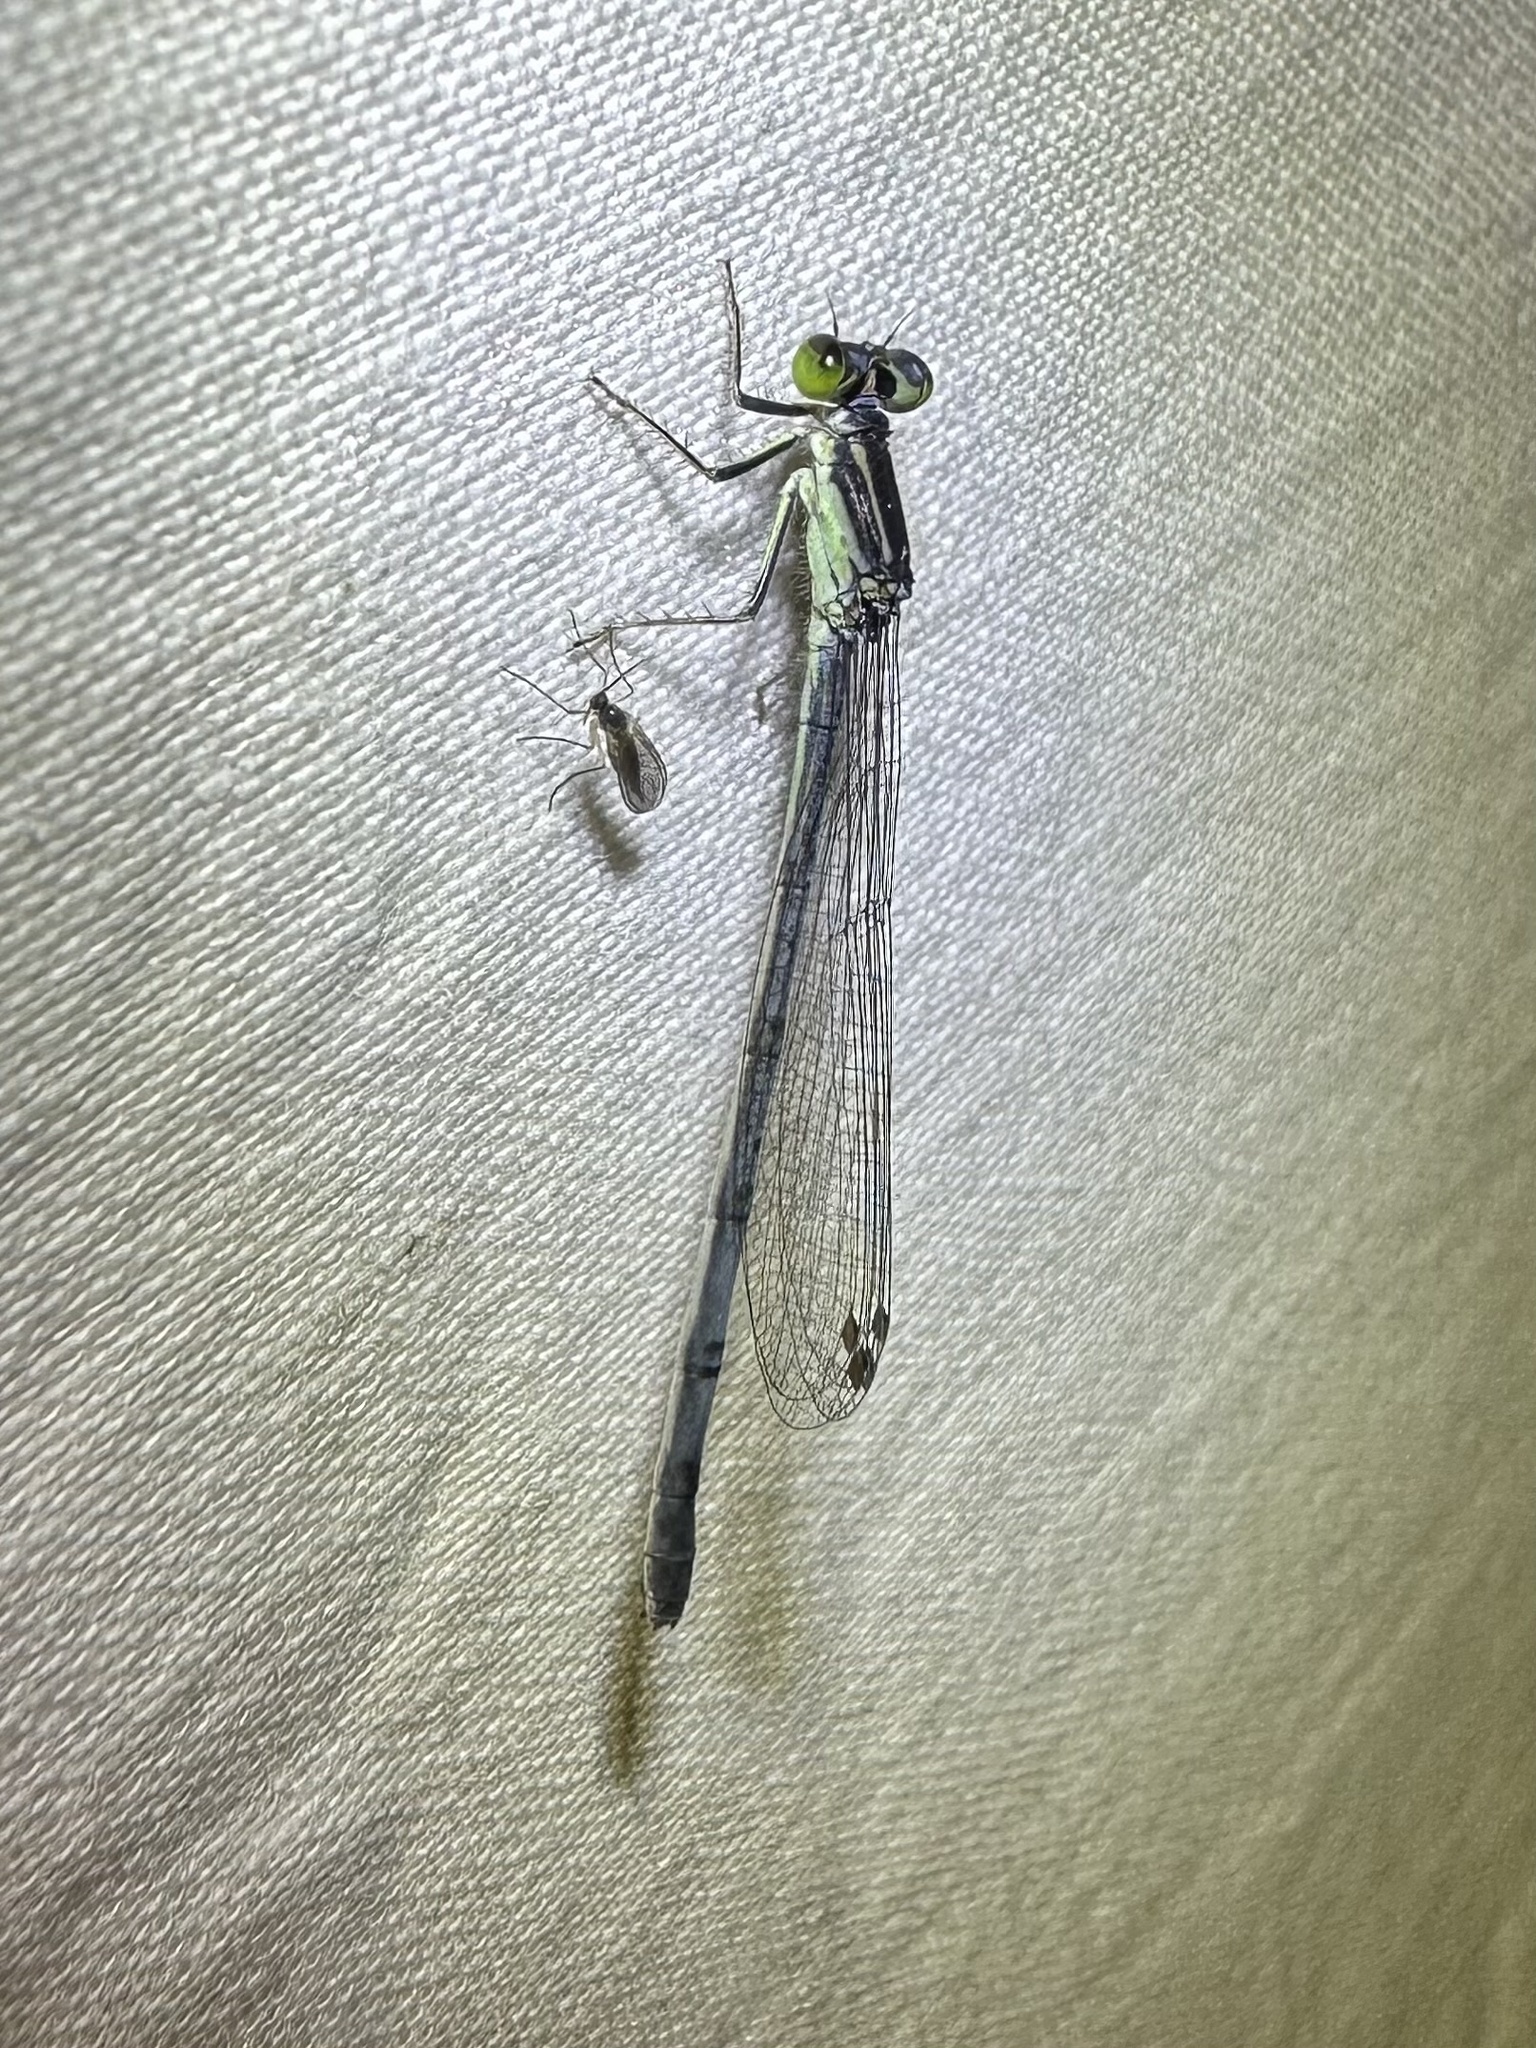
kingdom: Animalia
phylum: Arthropoda
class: Insecta
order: Odonata
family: Coenagrionidae
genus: Ischnura
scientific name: Ischnura verticalis
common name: Eastern forktail
